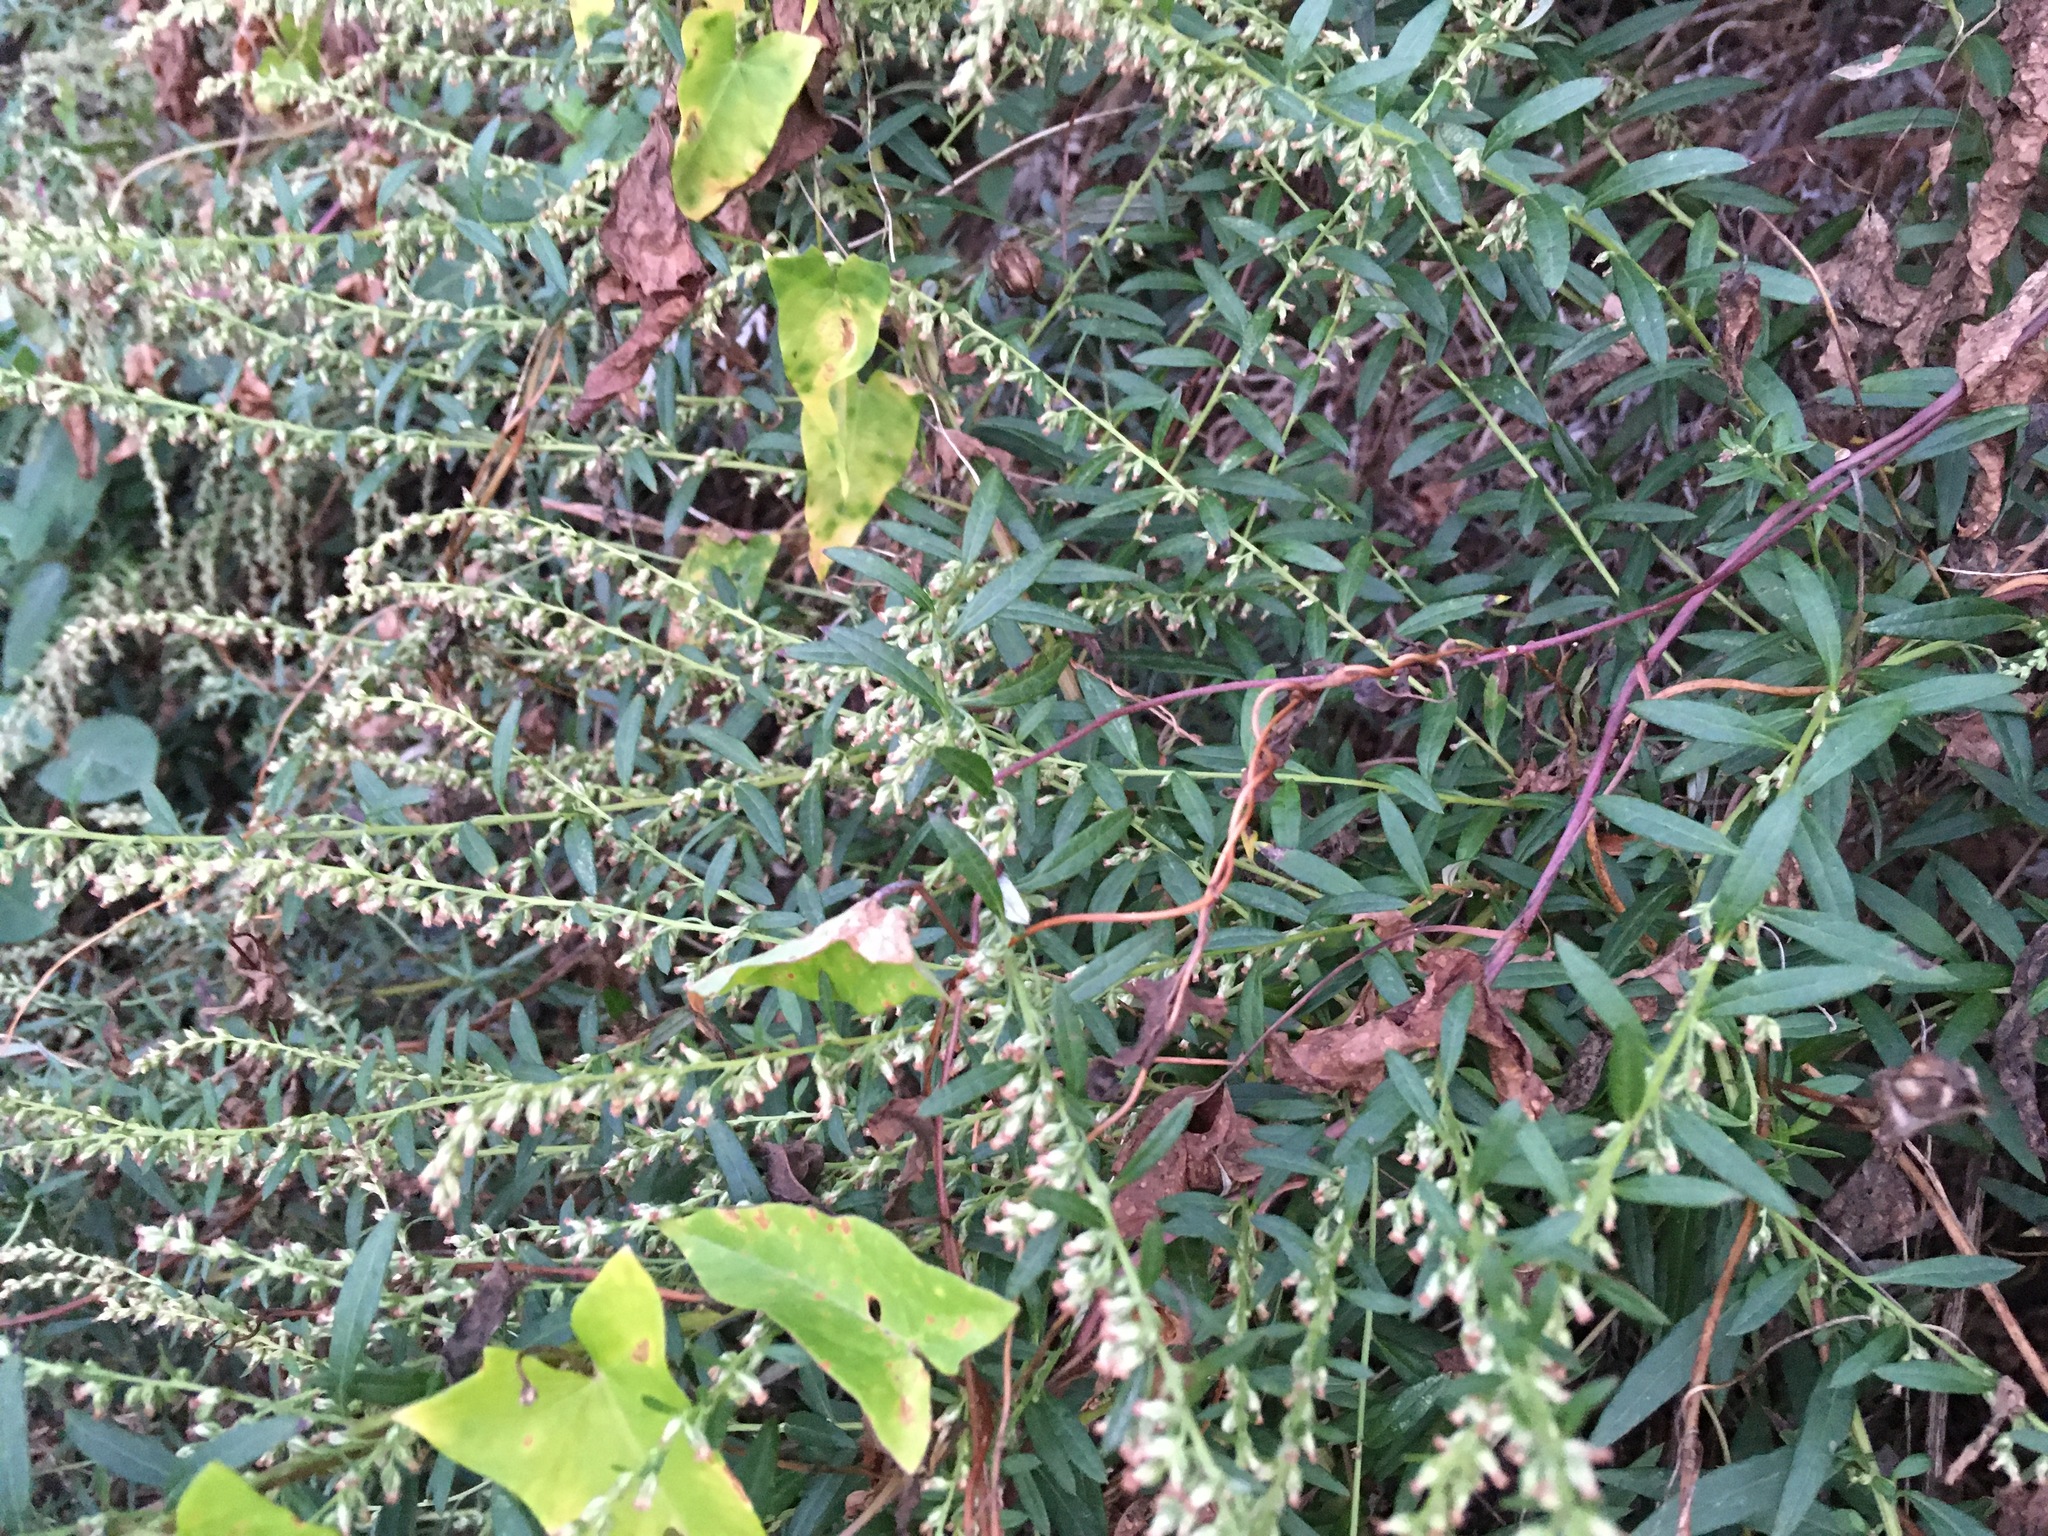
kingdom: Plantae
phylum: Tracheophyta
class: Magnoliopsida
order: Asterales
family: Asteraceae
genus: Artemisia
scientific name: Artemisia vulgaris
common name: Mugwort
